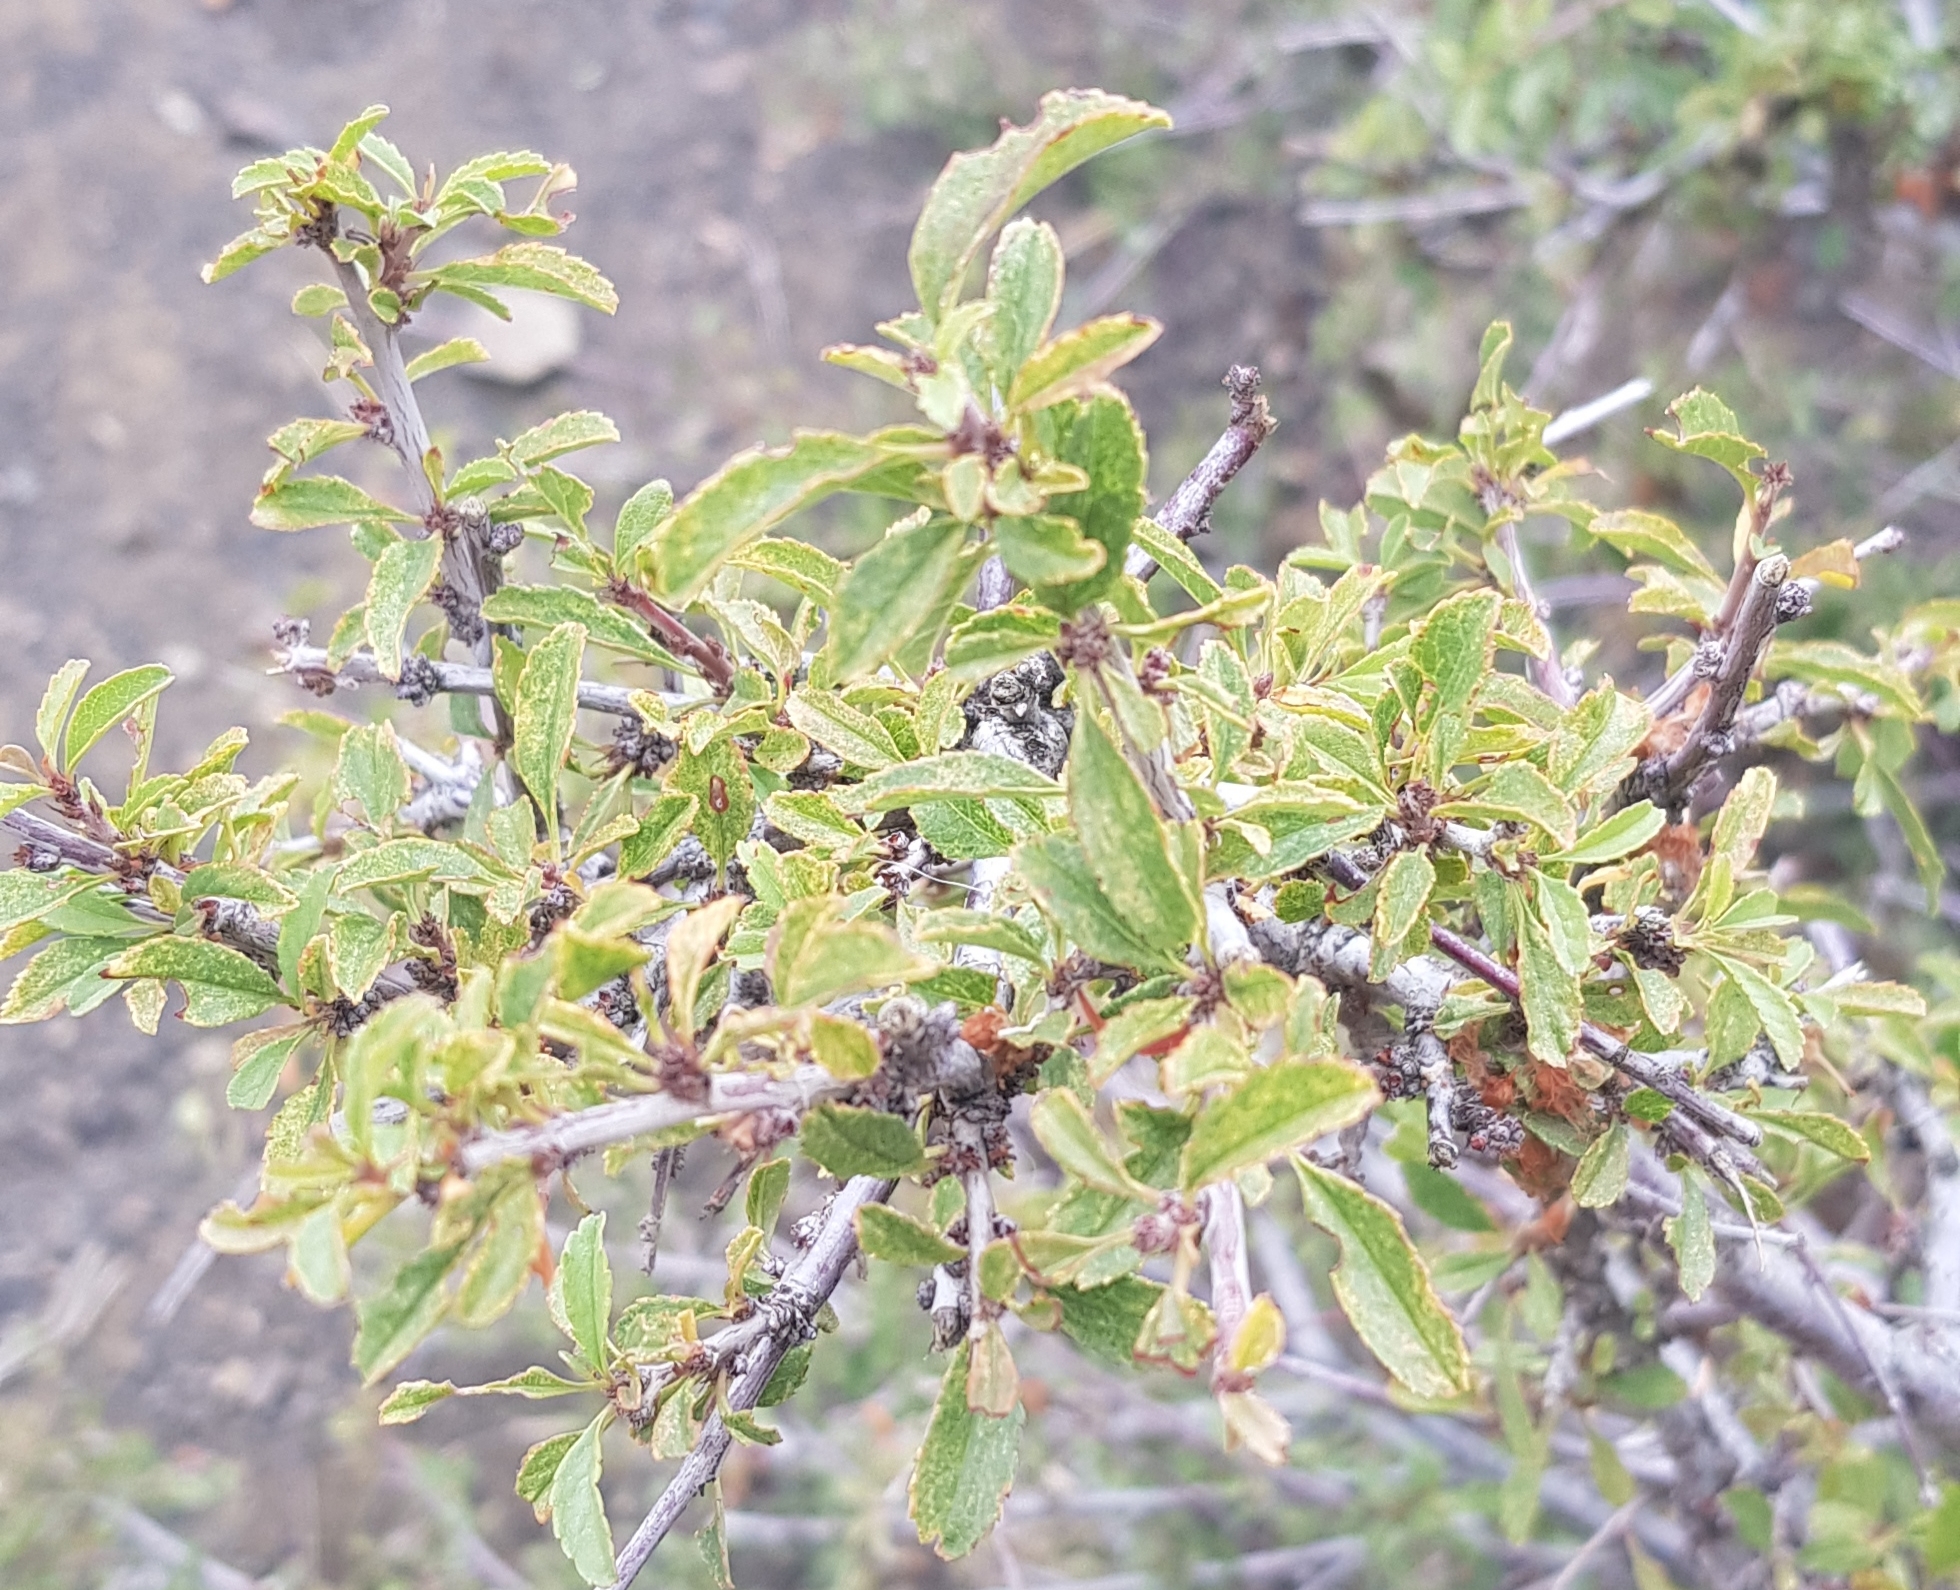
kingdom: Plantae
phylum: Tracheophyta
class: Magnoliopsida
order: Rosales
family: Rosaceae
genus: Prunus
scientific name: Prunus pedunculata
